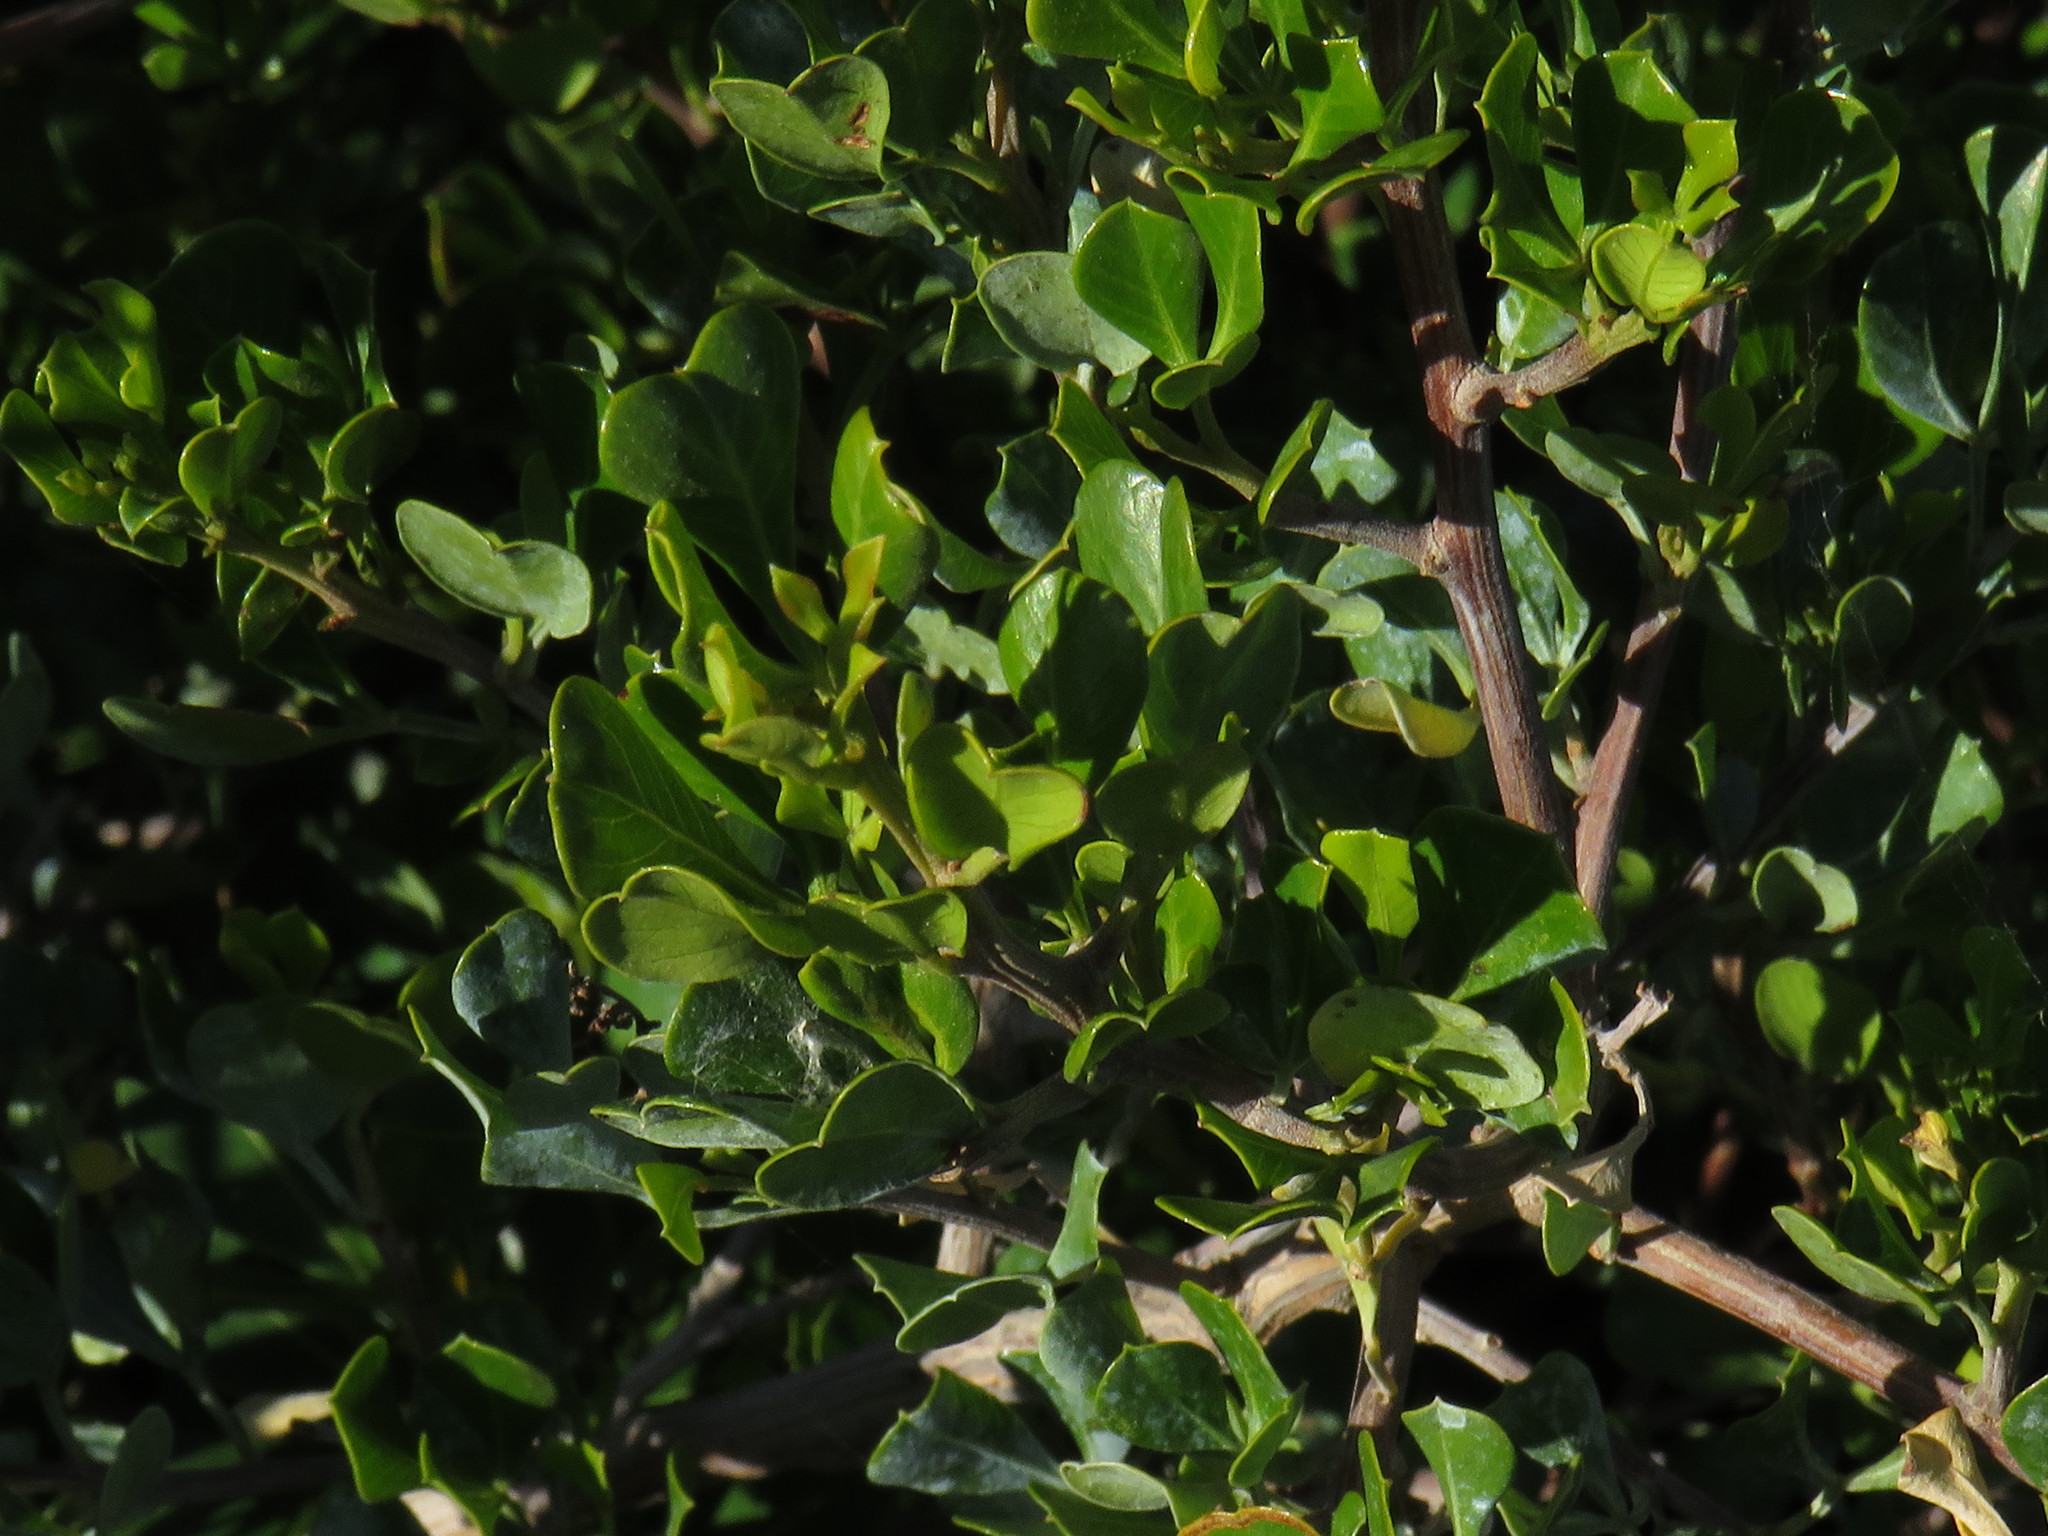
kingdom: Plantae
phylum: Tracheophyta
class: Magnoliopsida
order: Sapindales
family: Anacardiaceae
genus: Searsia
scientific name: Searsia glauca
